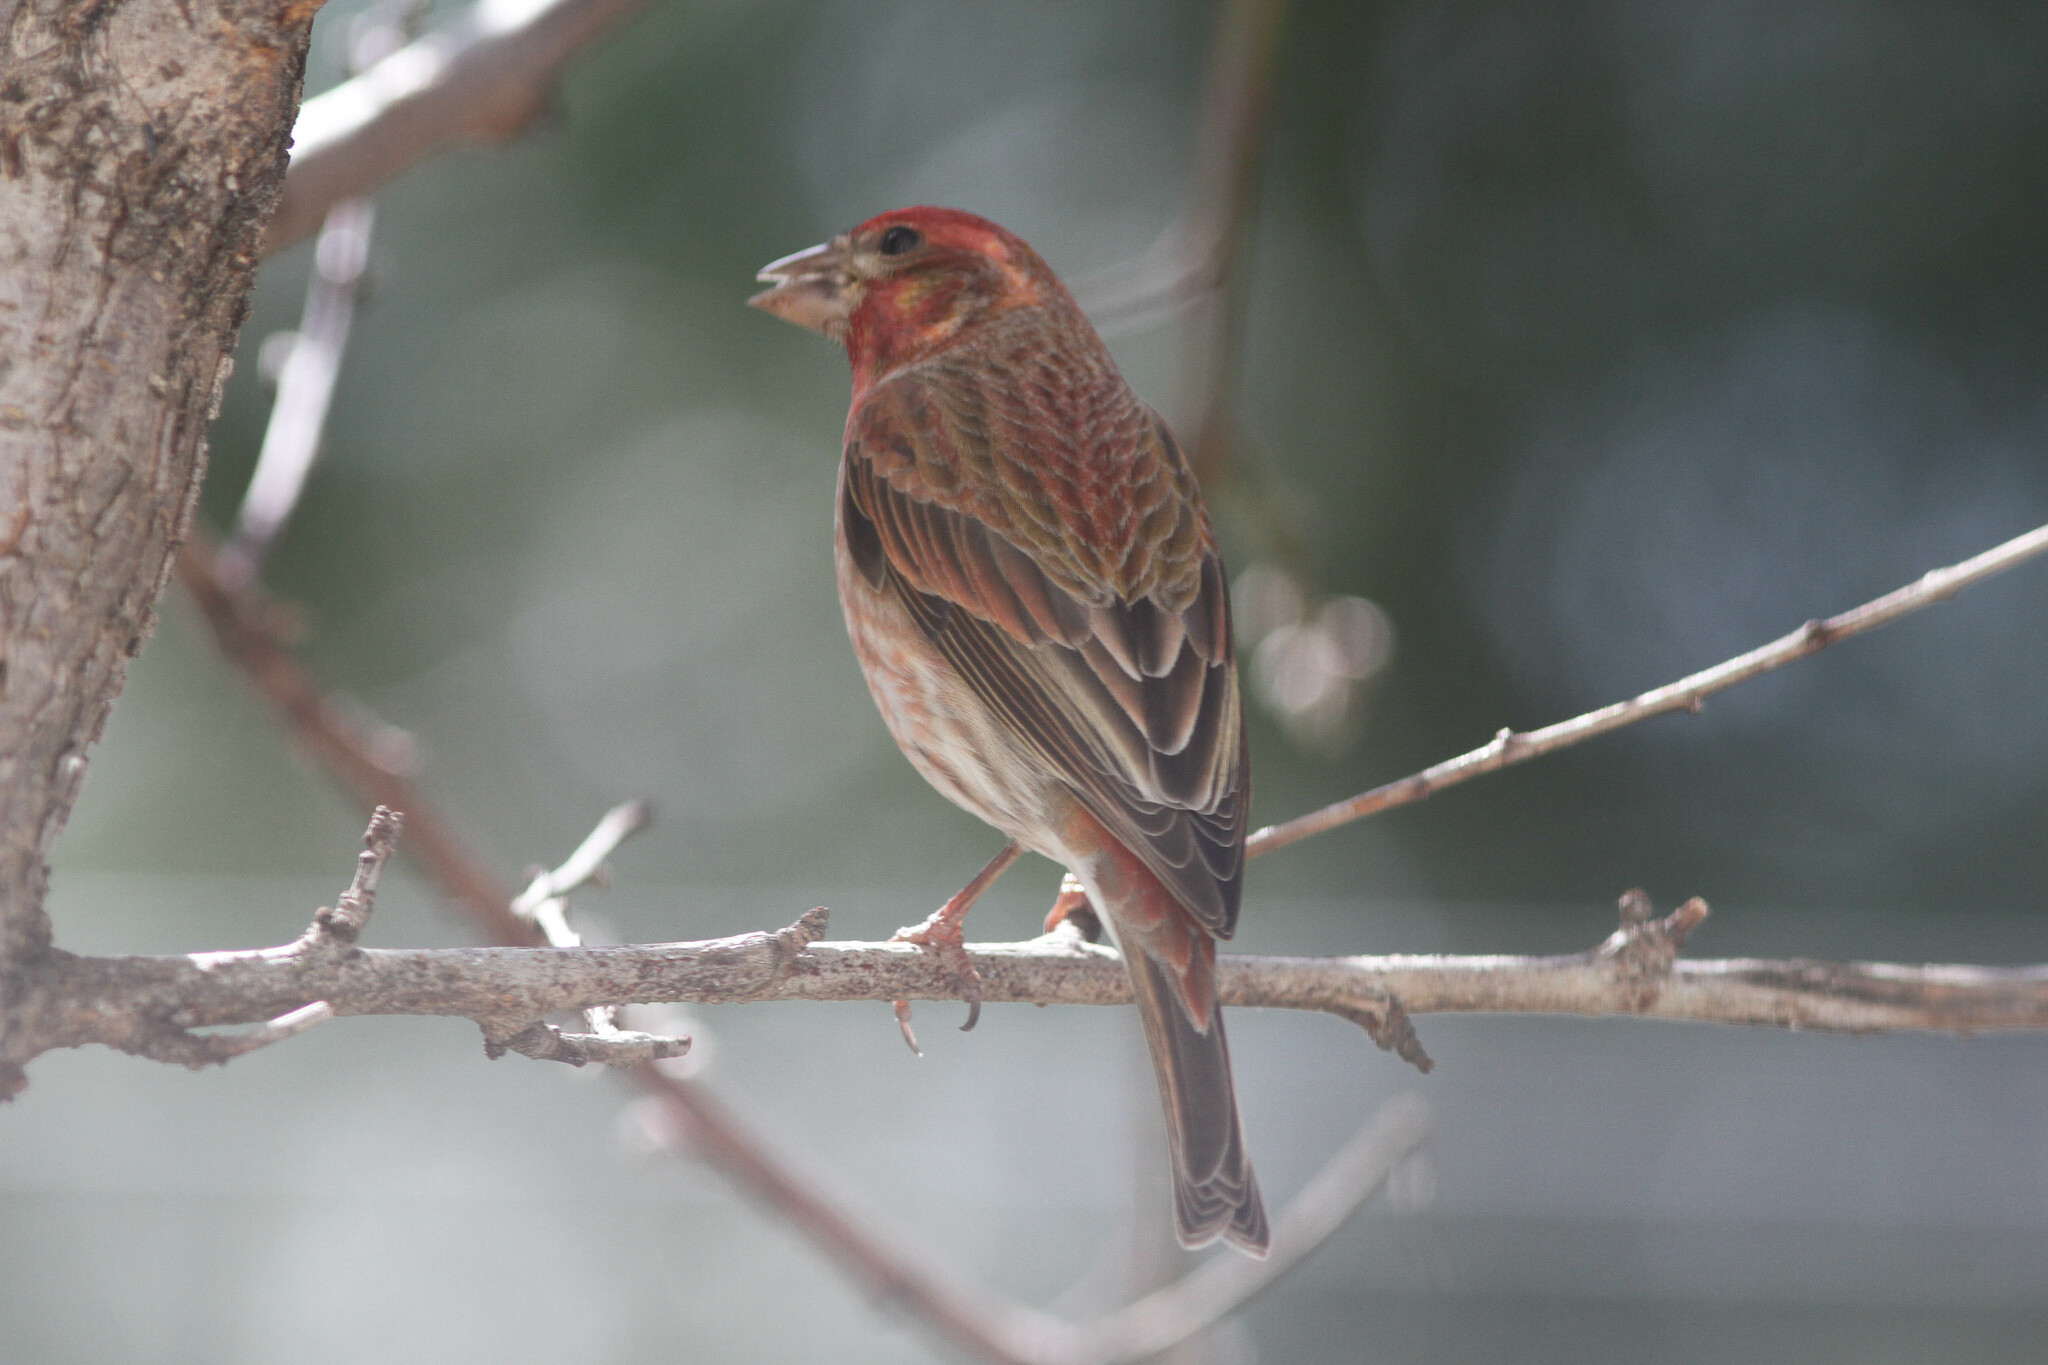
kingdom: Animalia
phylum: Chordata
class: Aves
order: Passeriformes
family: Fringillidae
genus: Haemorhous
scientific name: Haemorhous purpureus
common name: Purple finch
